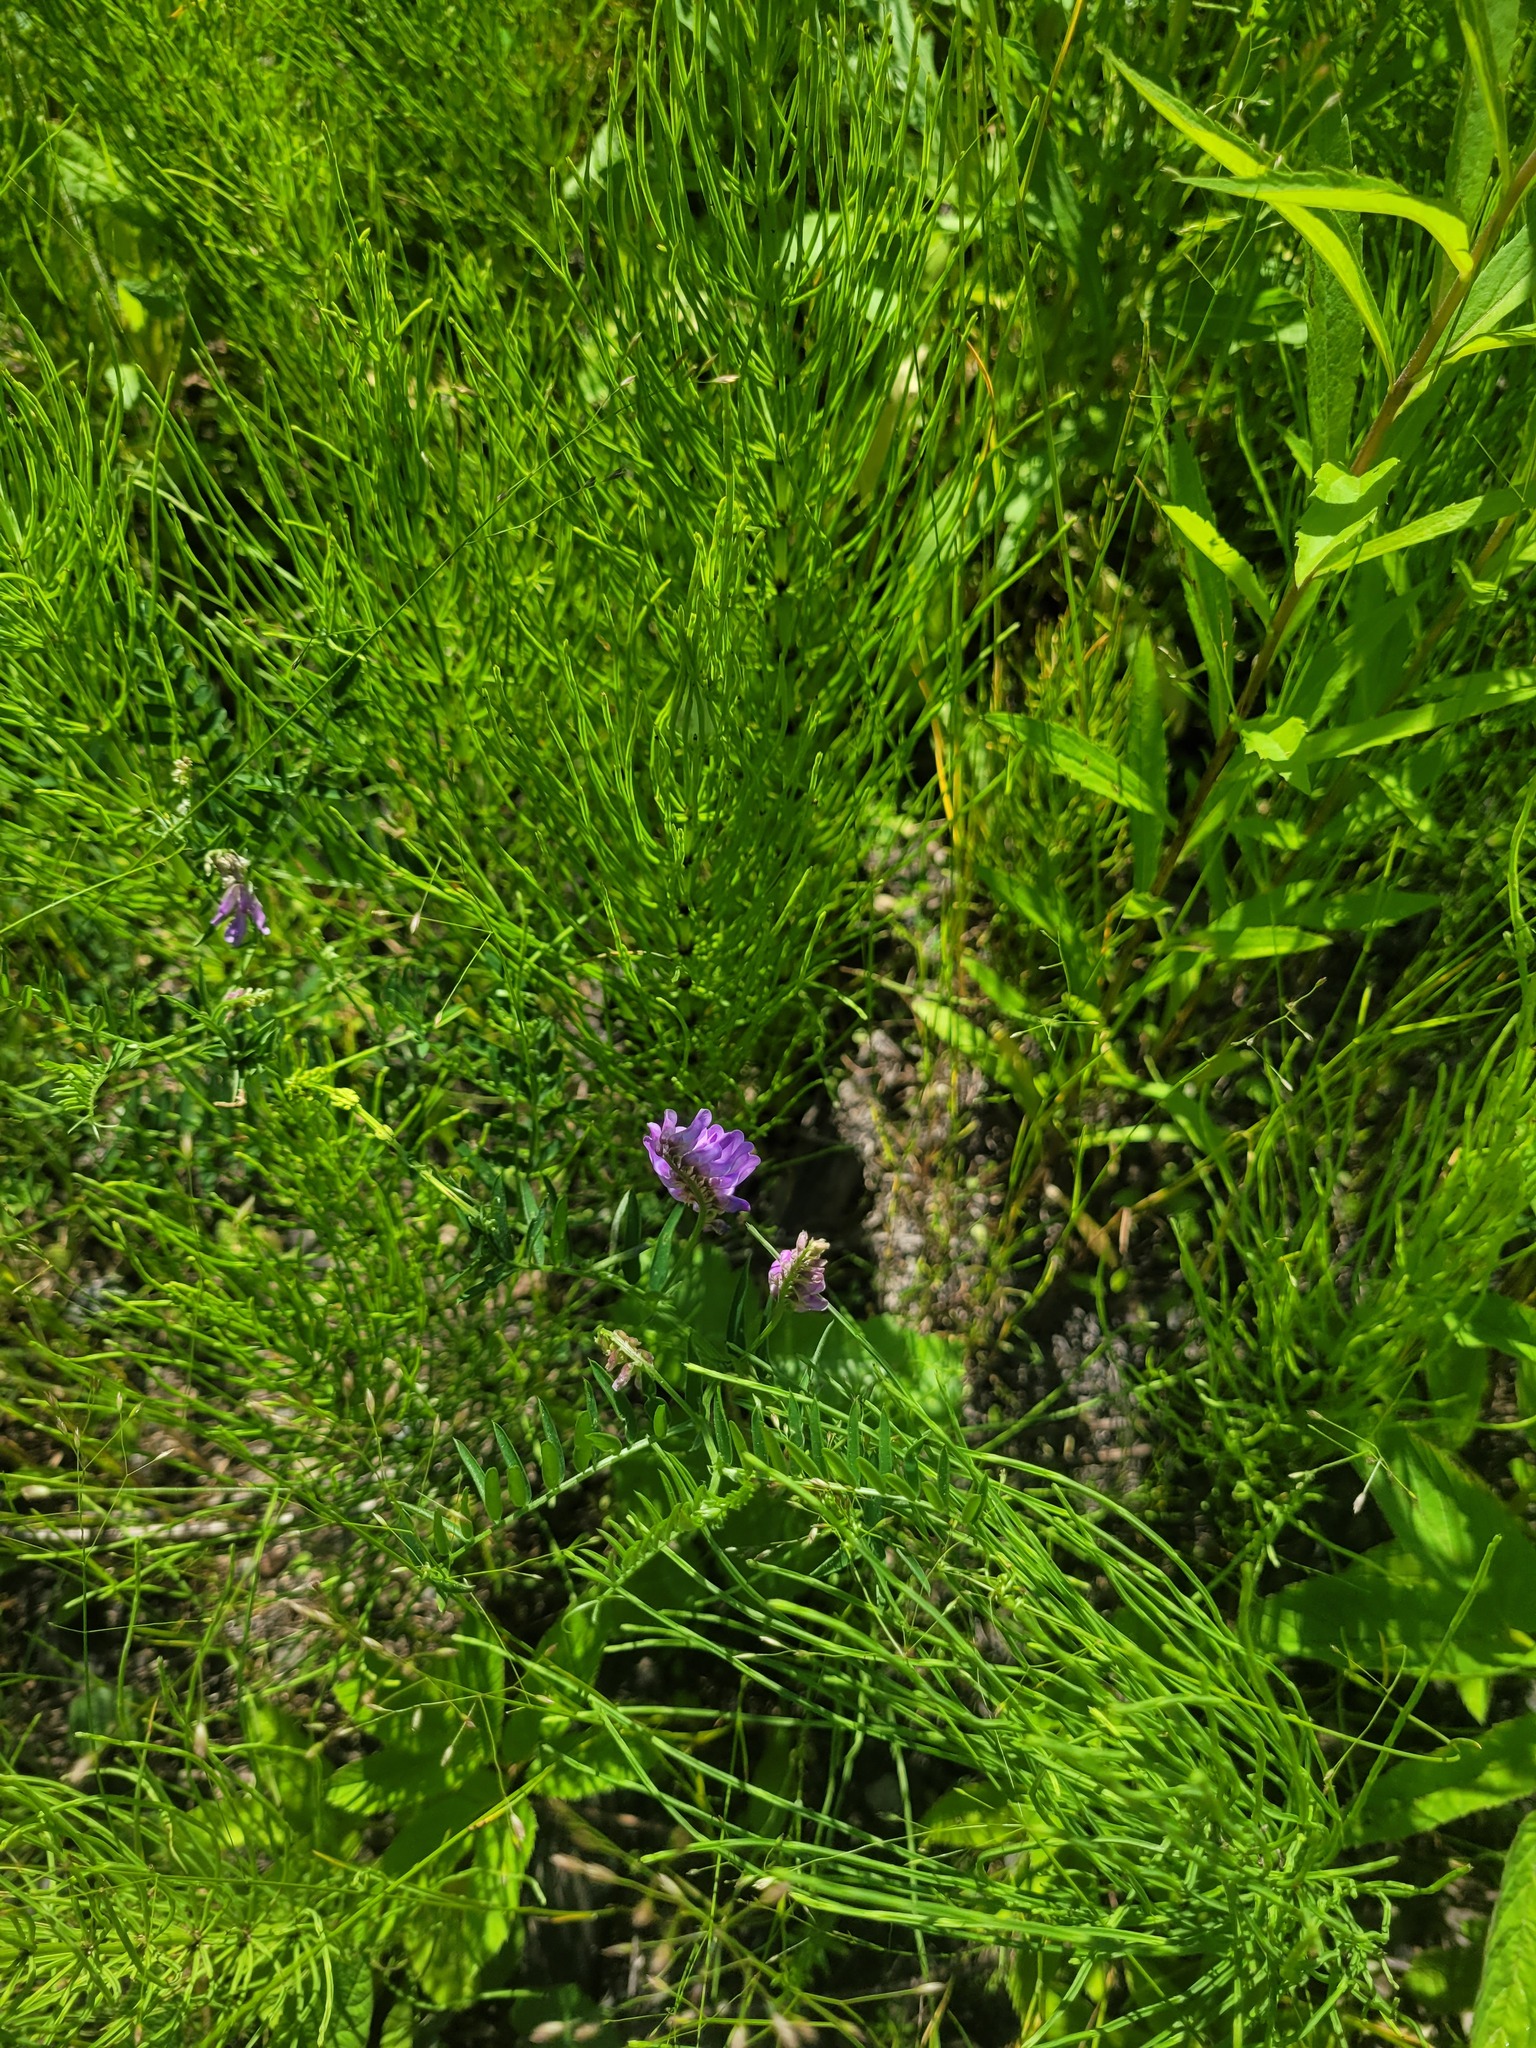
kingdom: Plantae
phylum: Tracheophyta
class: Magnoliopsida
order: Fabales
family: Fabaceae
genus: Vicia
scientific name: Vicia cracca
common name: Bird vetch
